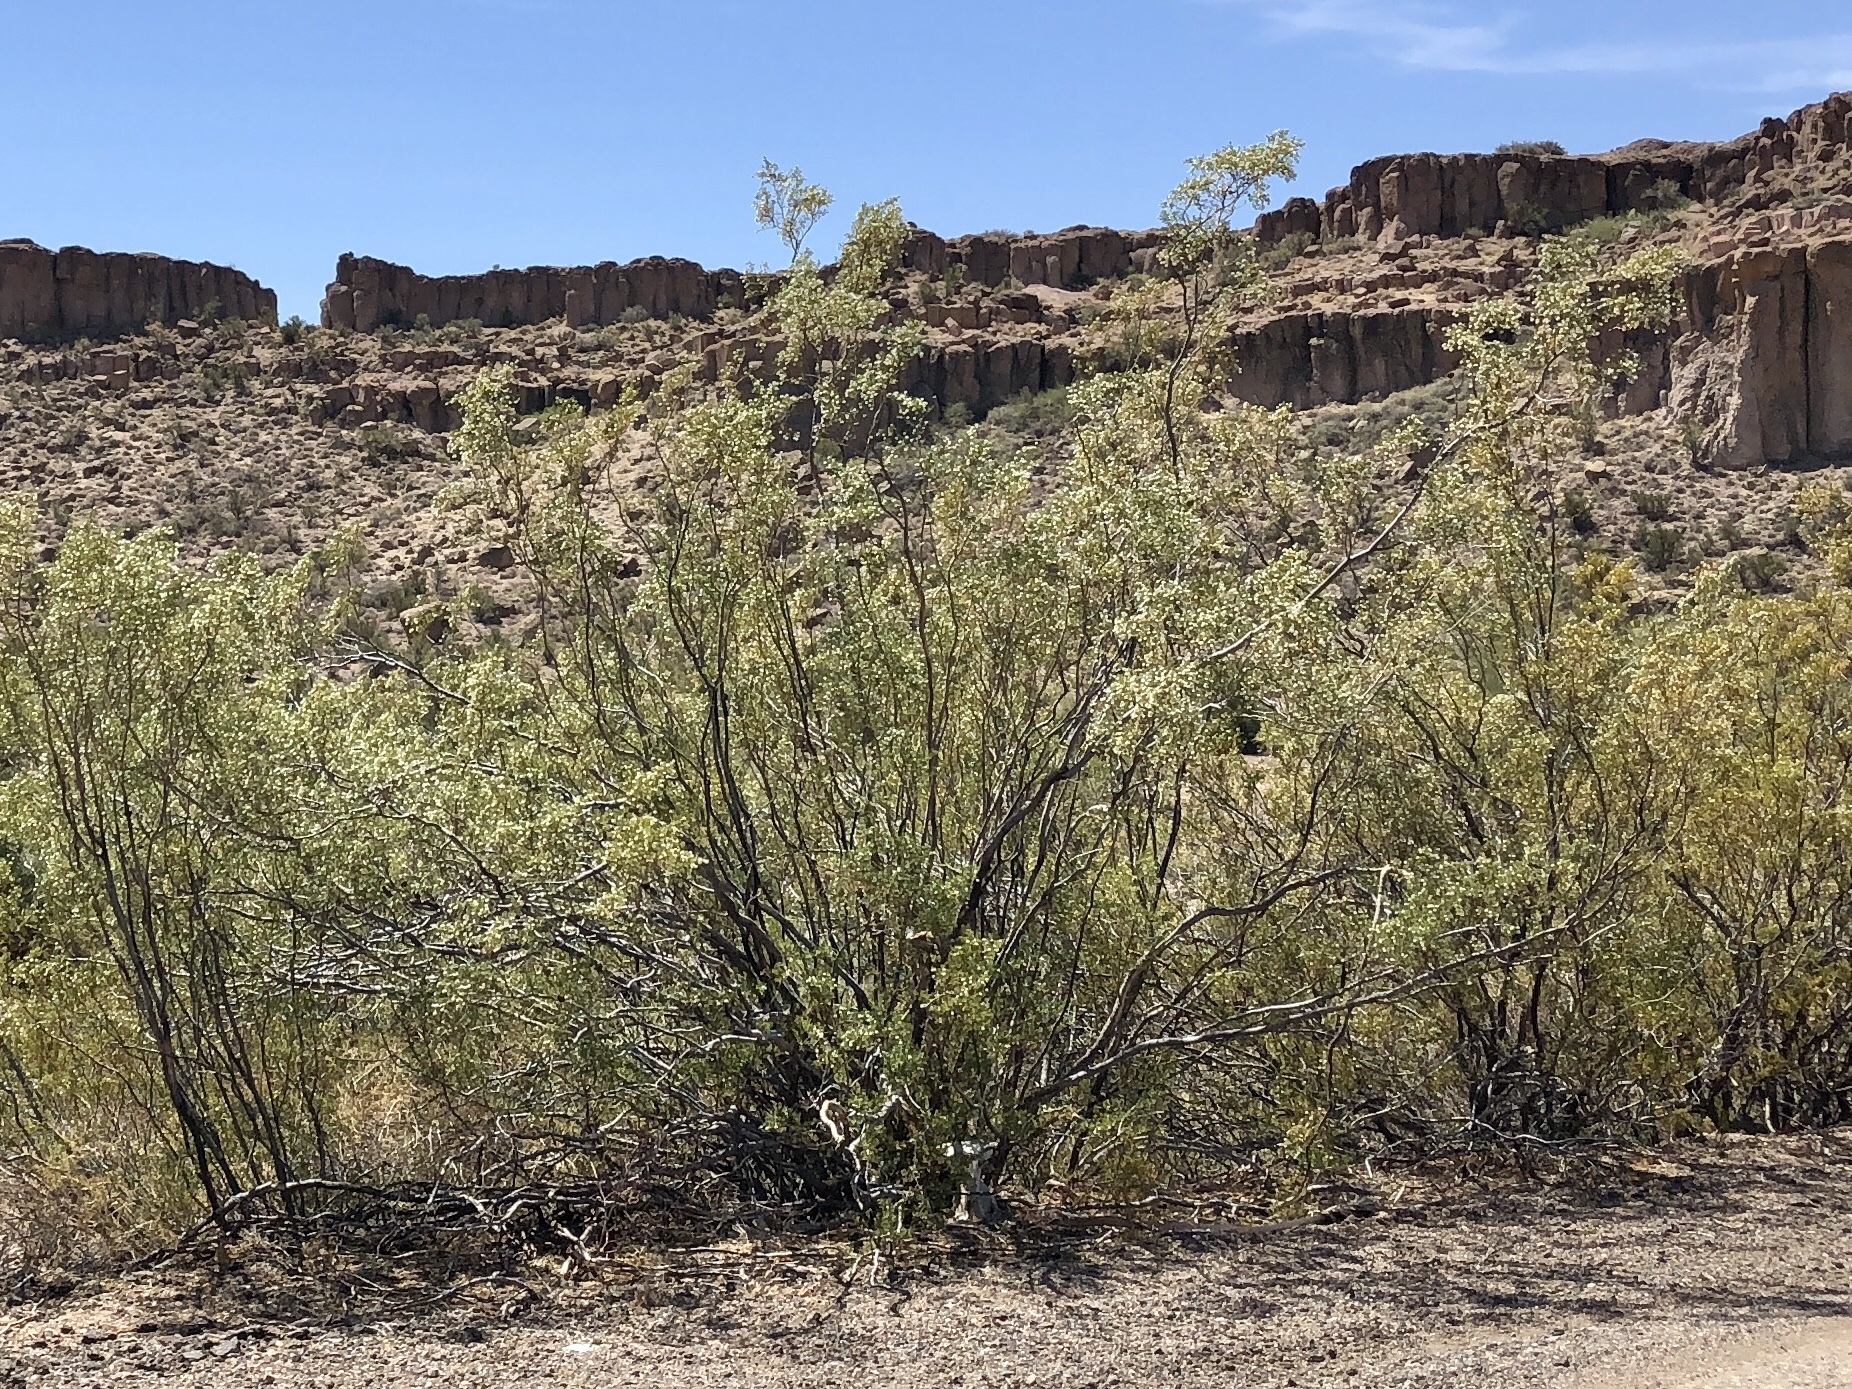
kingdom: Plantae
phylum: Tracheophyta
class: Magnoliopsida
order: Zygophyllales
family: Zygophyllaceae
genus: Larrea
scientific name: Larrea tridentata
